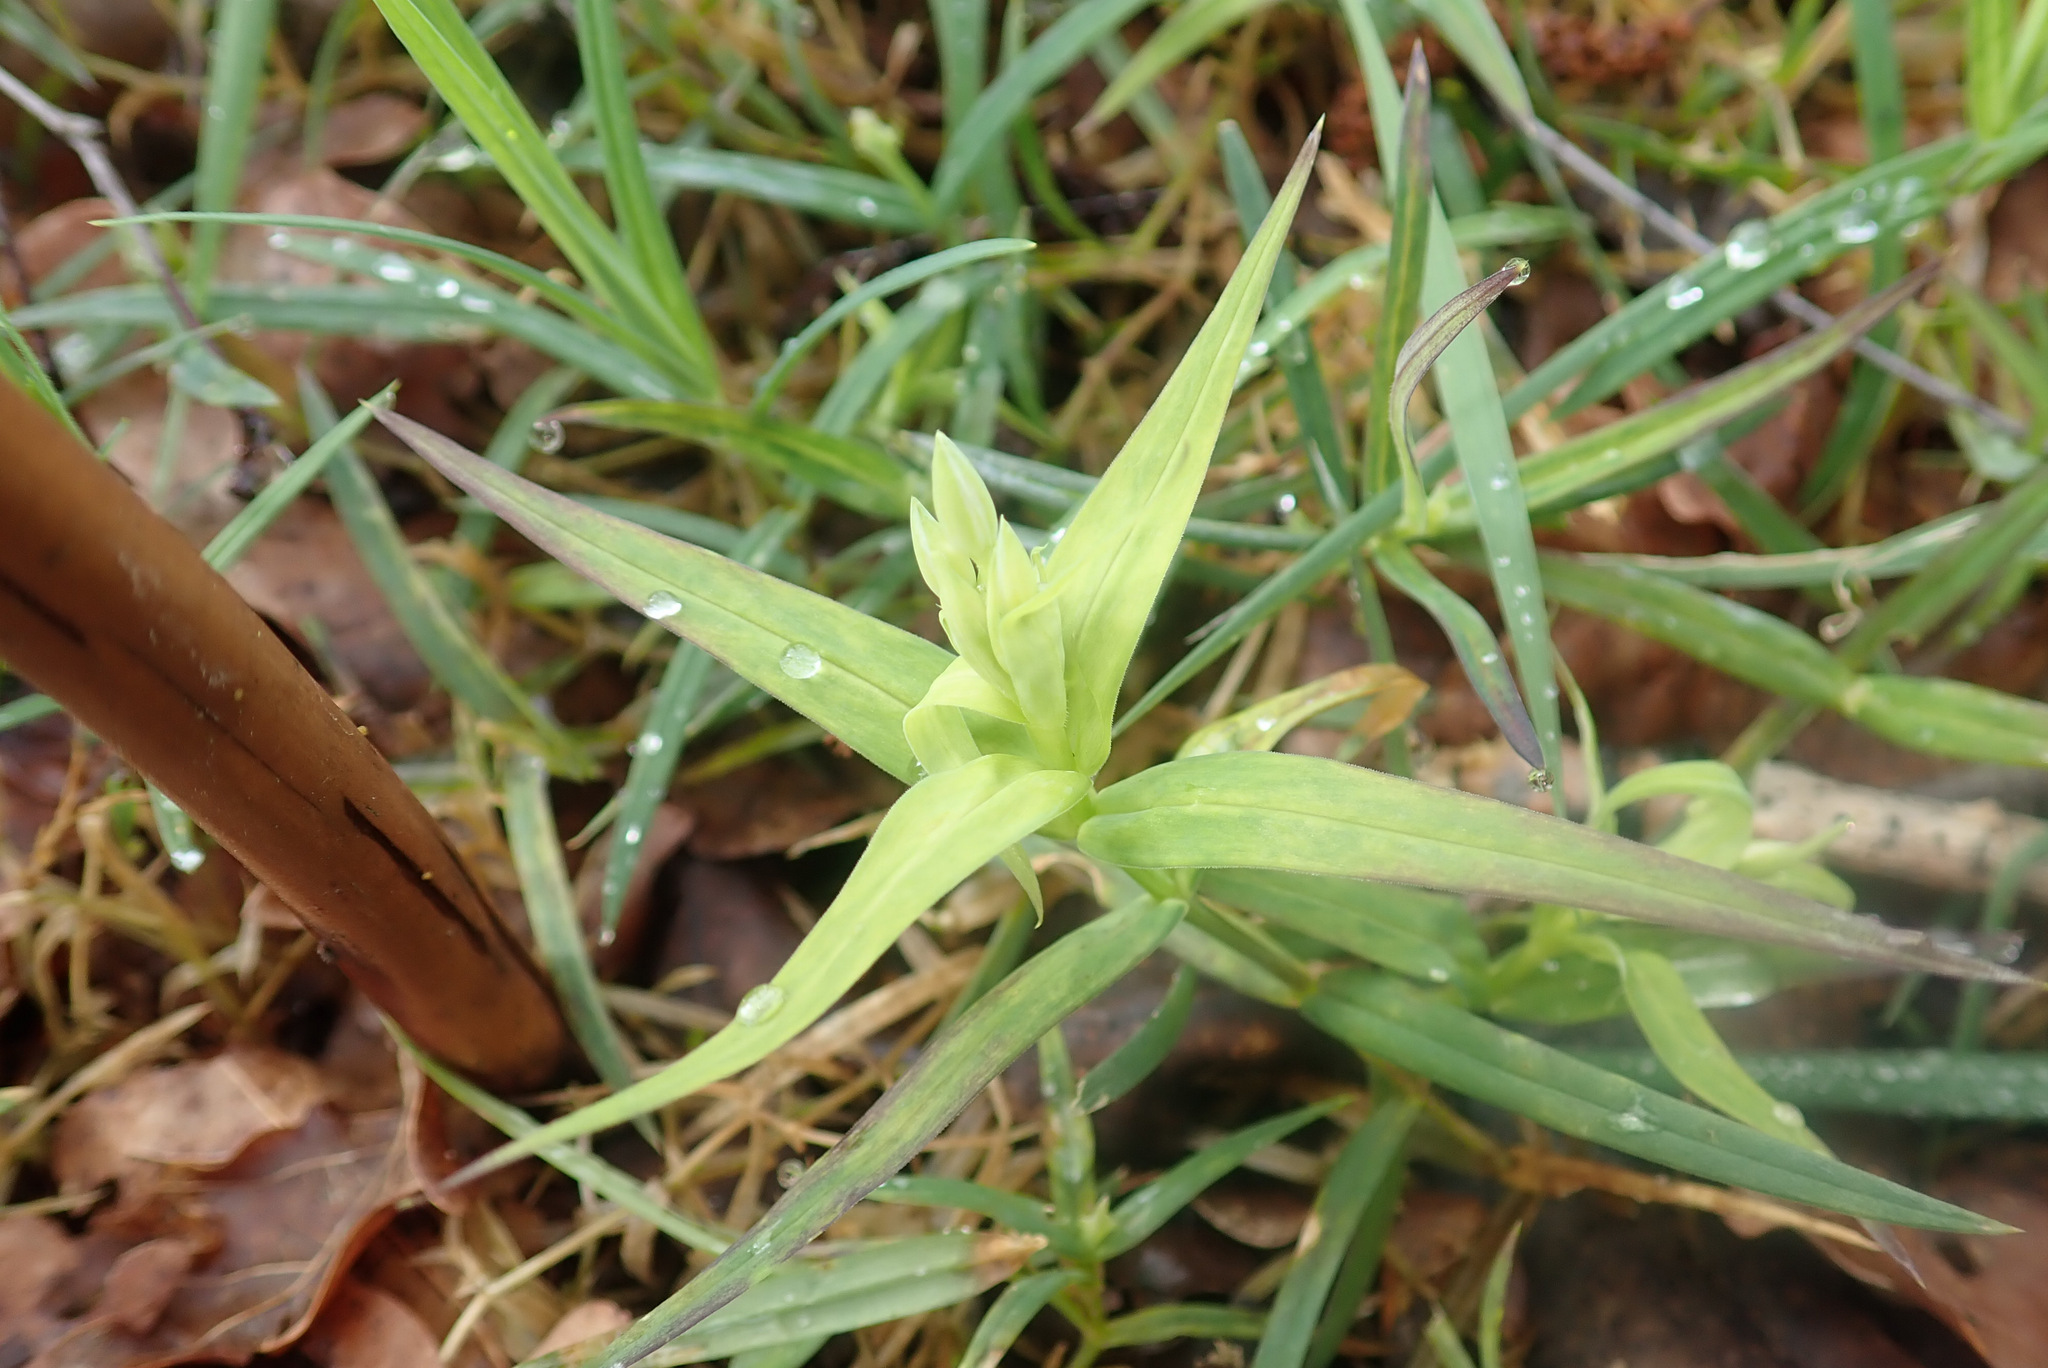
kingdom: Plantae
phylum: Tracheophyta
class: Magnoliopsida
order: Caryophyllales
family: Caryophyllaceae
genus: Rabelera
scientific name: Rabelera holostea
